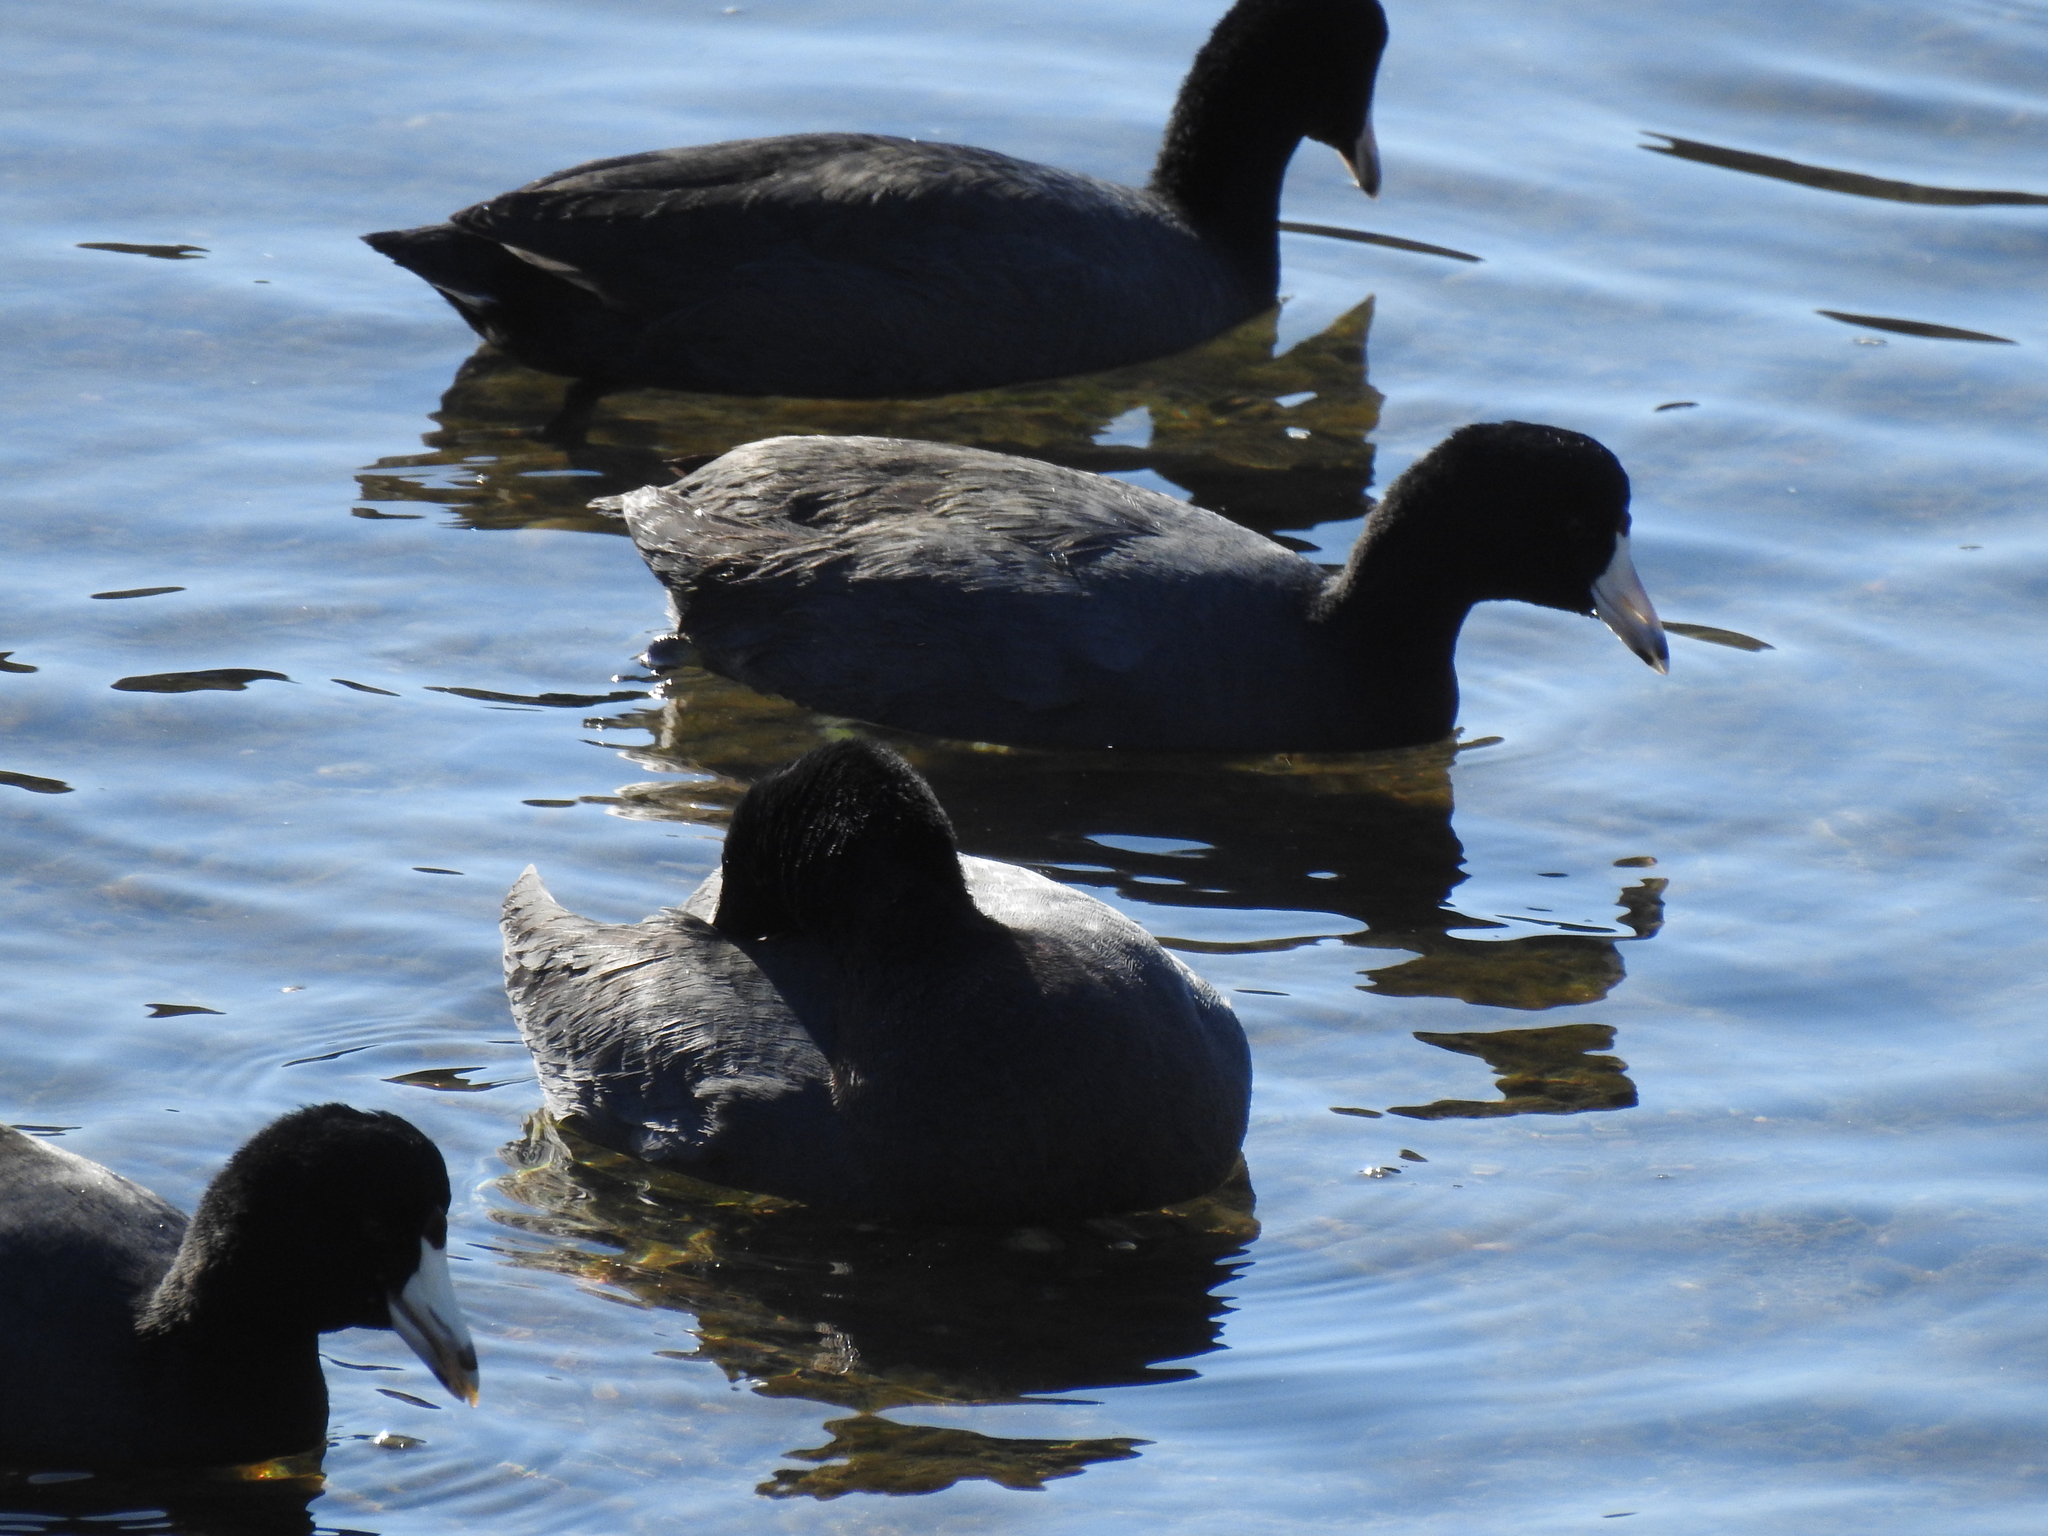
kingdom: Animalia
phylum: Chordata
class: Aves
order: Gruiformes
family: Rallidae
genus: Fulica
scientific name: Fulica americana
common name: American coot
